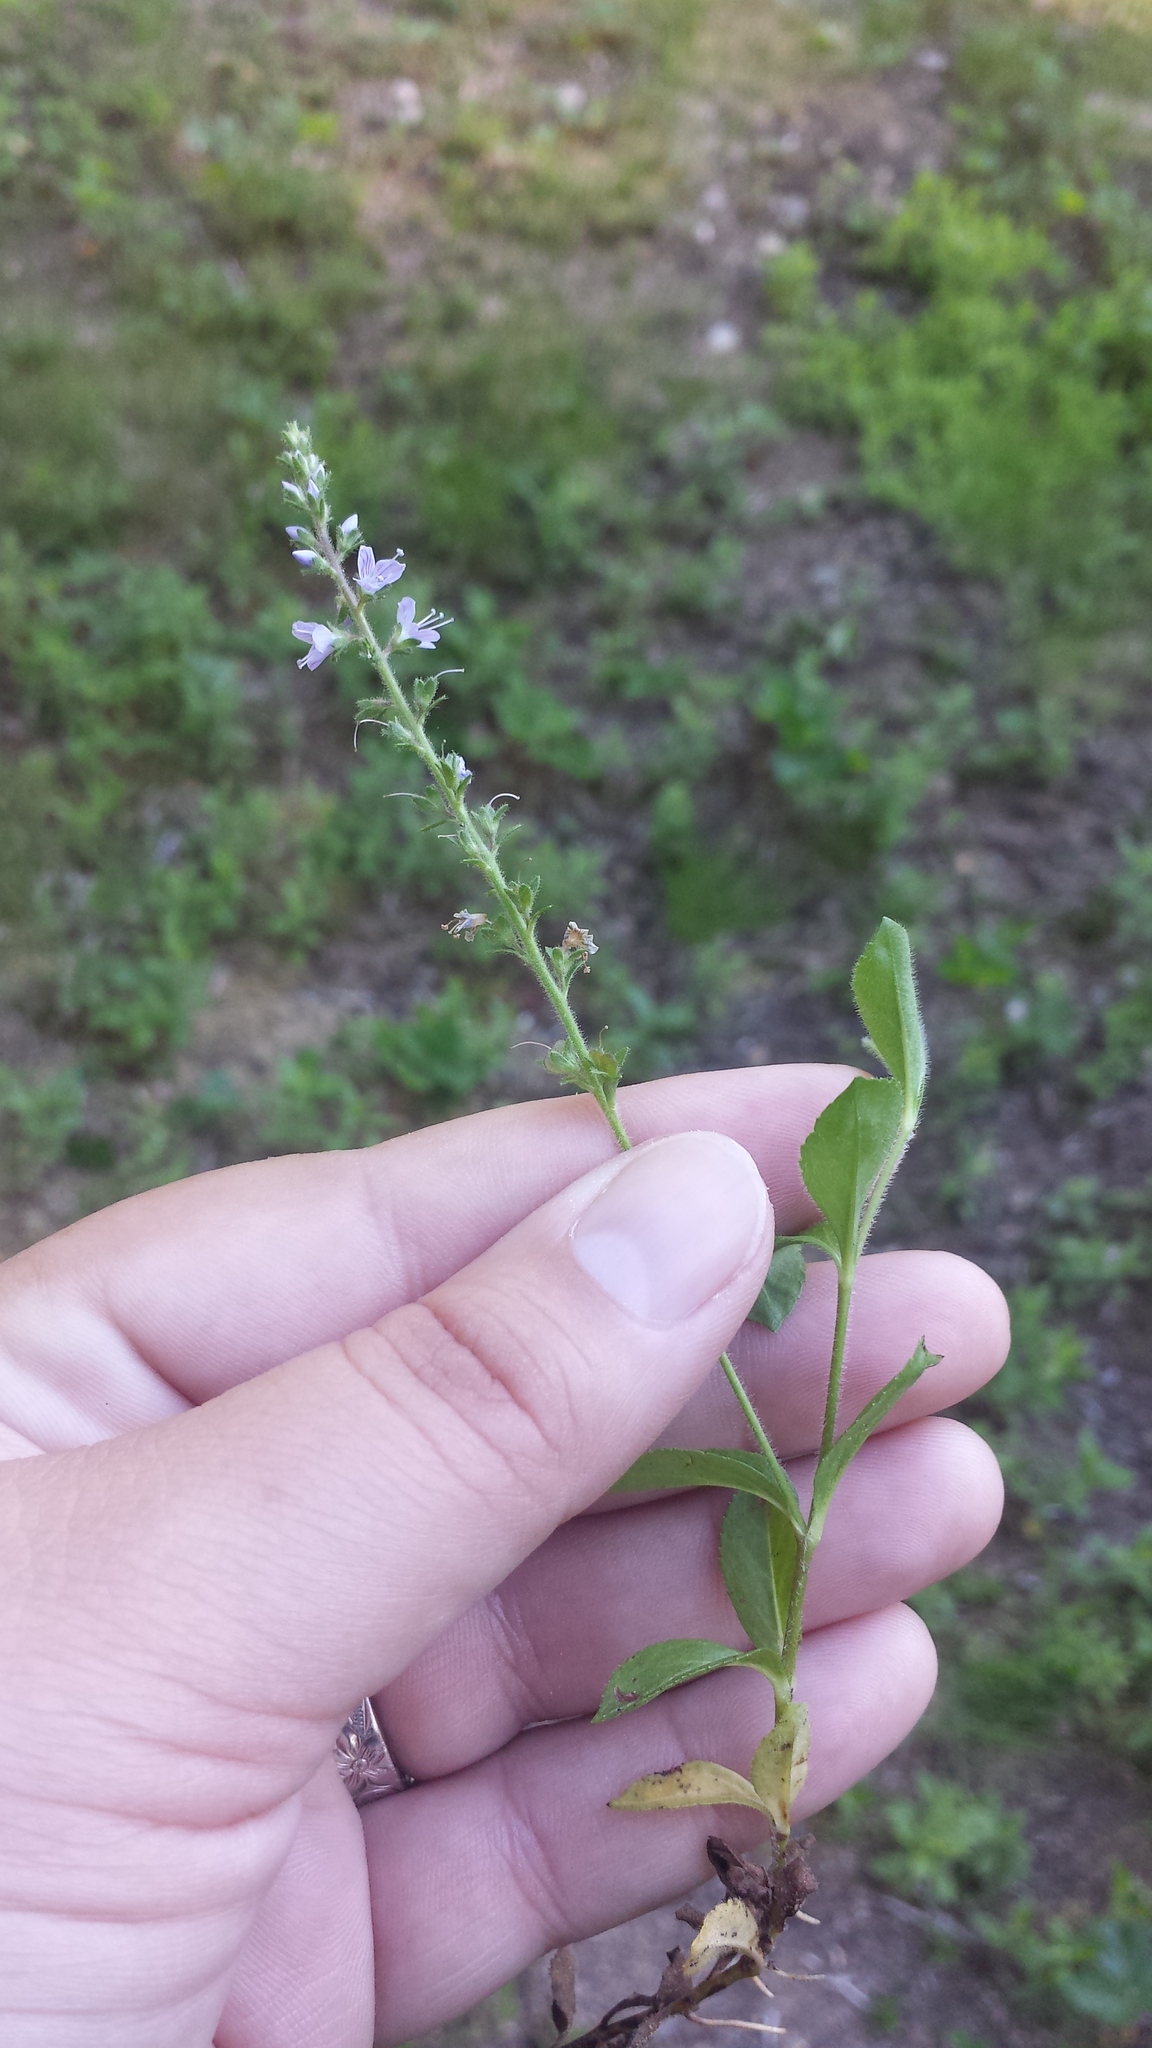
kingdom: Plantae
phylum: Tracheophyta
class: Magnoliopsida
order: Lamiales
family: Plantaginaceae
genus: Veronica
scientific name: Veronica officinalis
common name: Common speedwell
